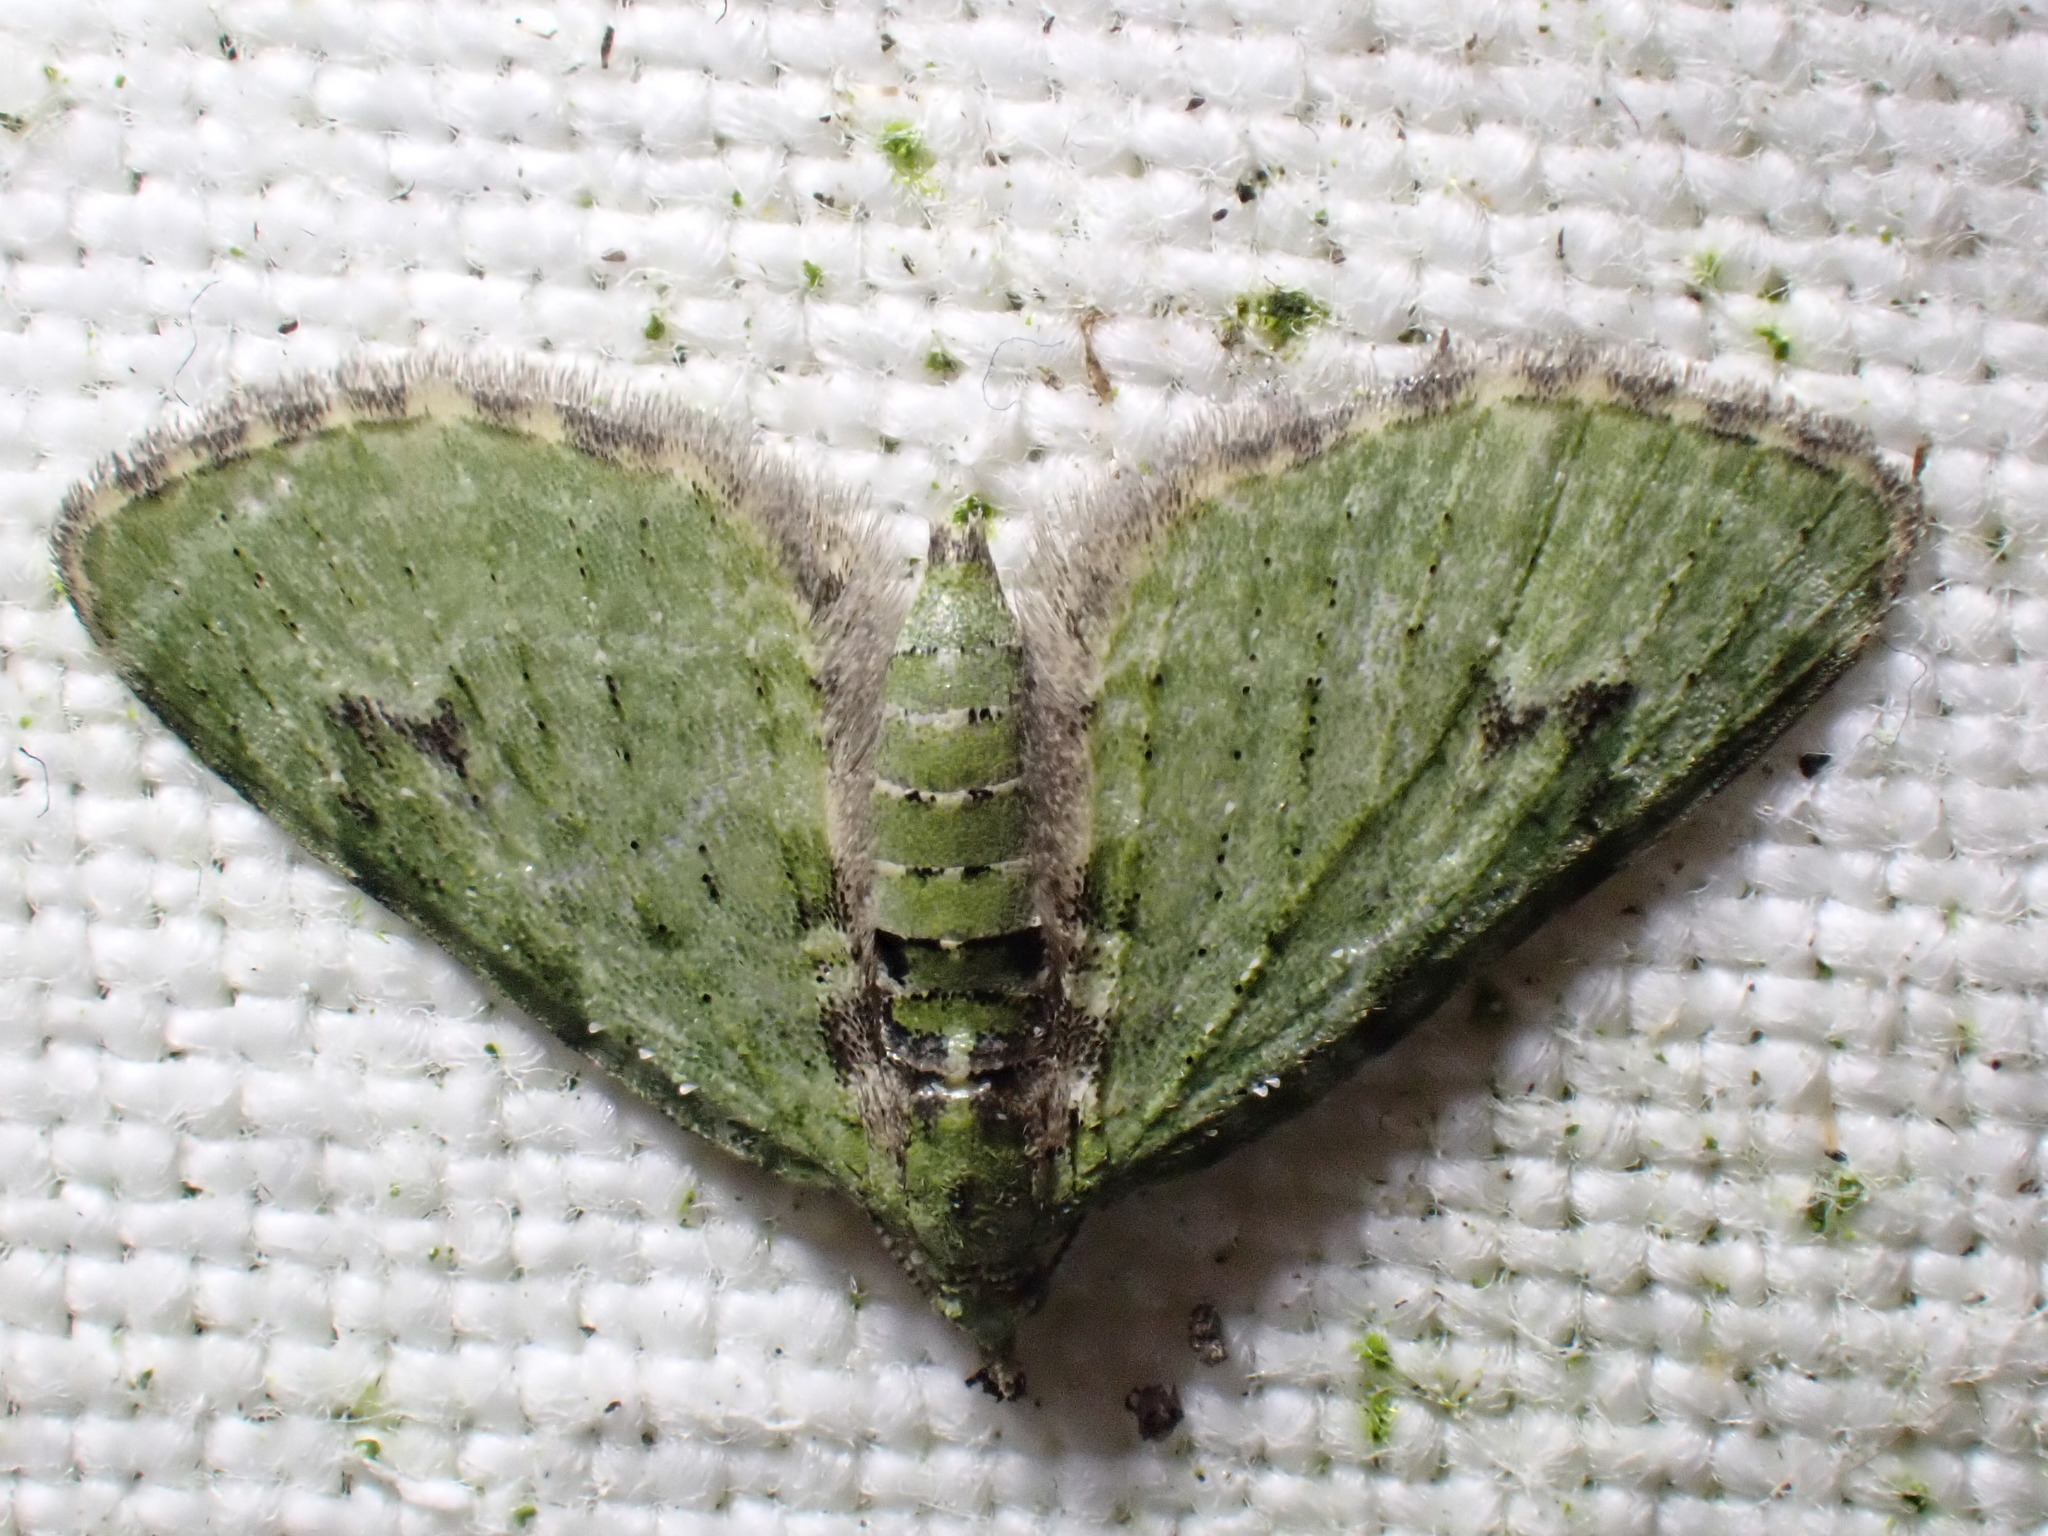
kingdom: Animalia
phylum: Arthropoda
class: Insecta
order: Lepidoptera
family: Geometridae
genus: Chloroclystis
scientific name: Chloroclystis v-ata
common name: V-pug
